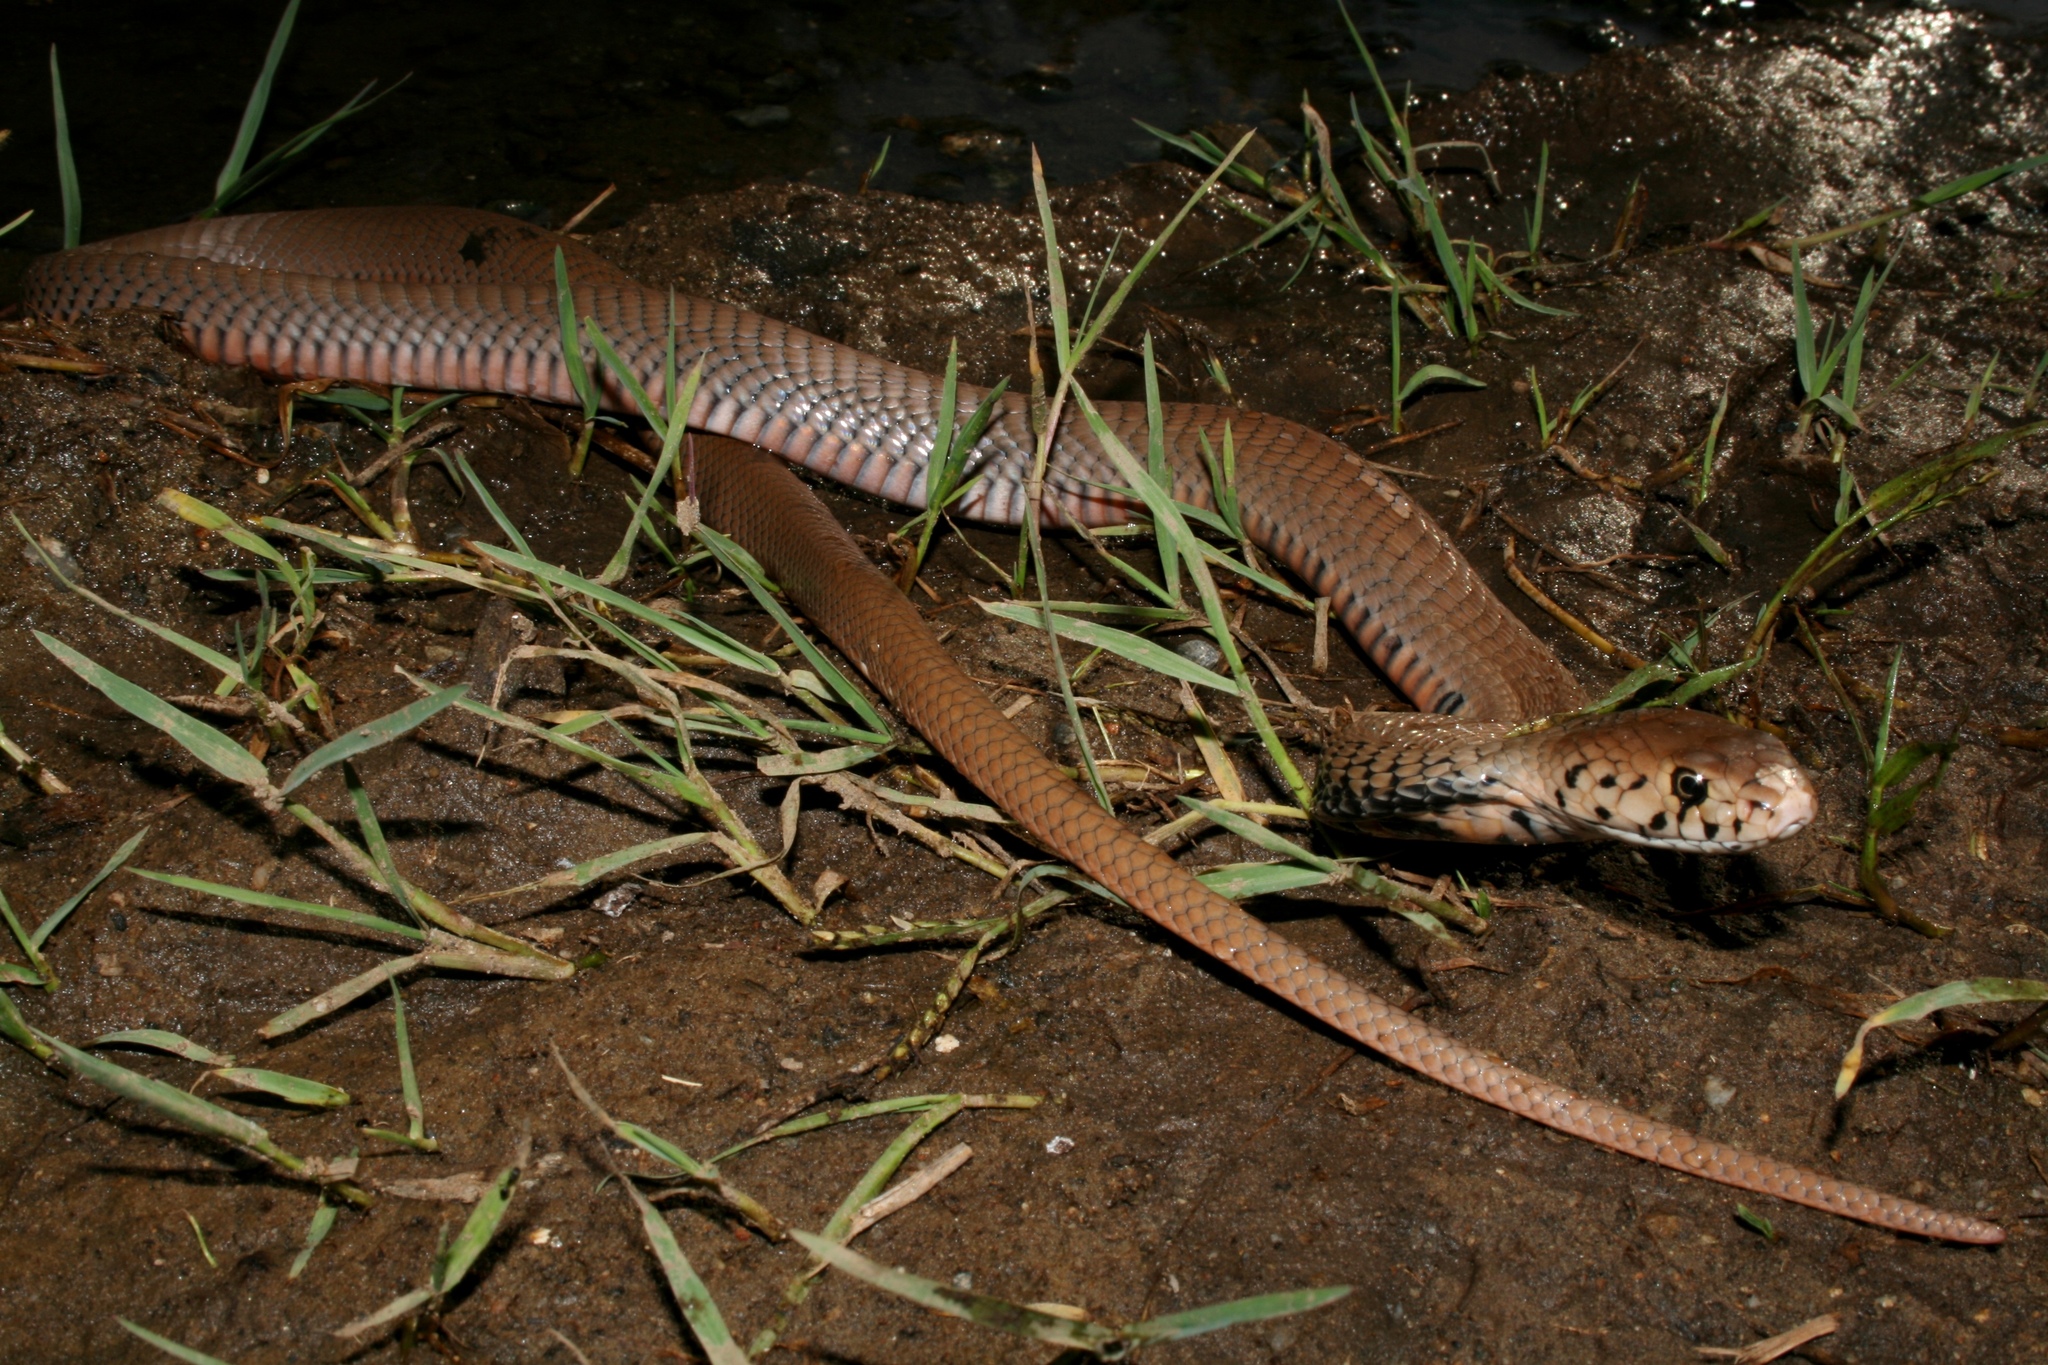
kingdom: Animalia
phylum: Chordata
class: Squamata
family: Elapidae
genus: Naja
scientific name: Naja mossambica
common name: Mozambique spitting cobra
